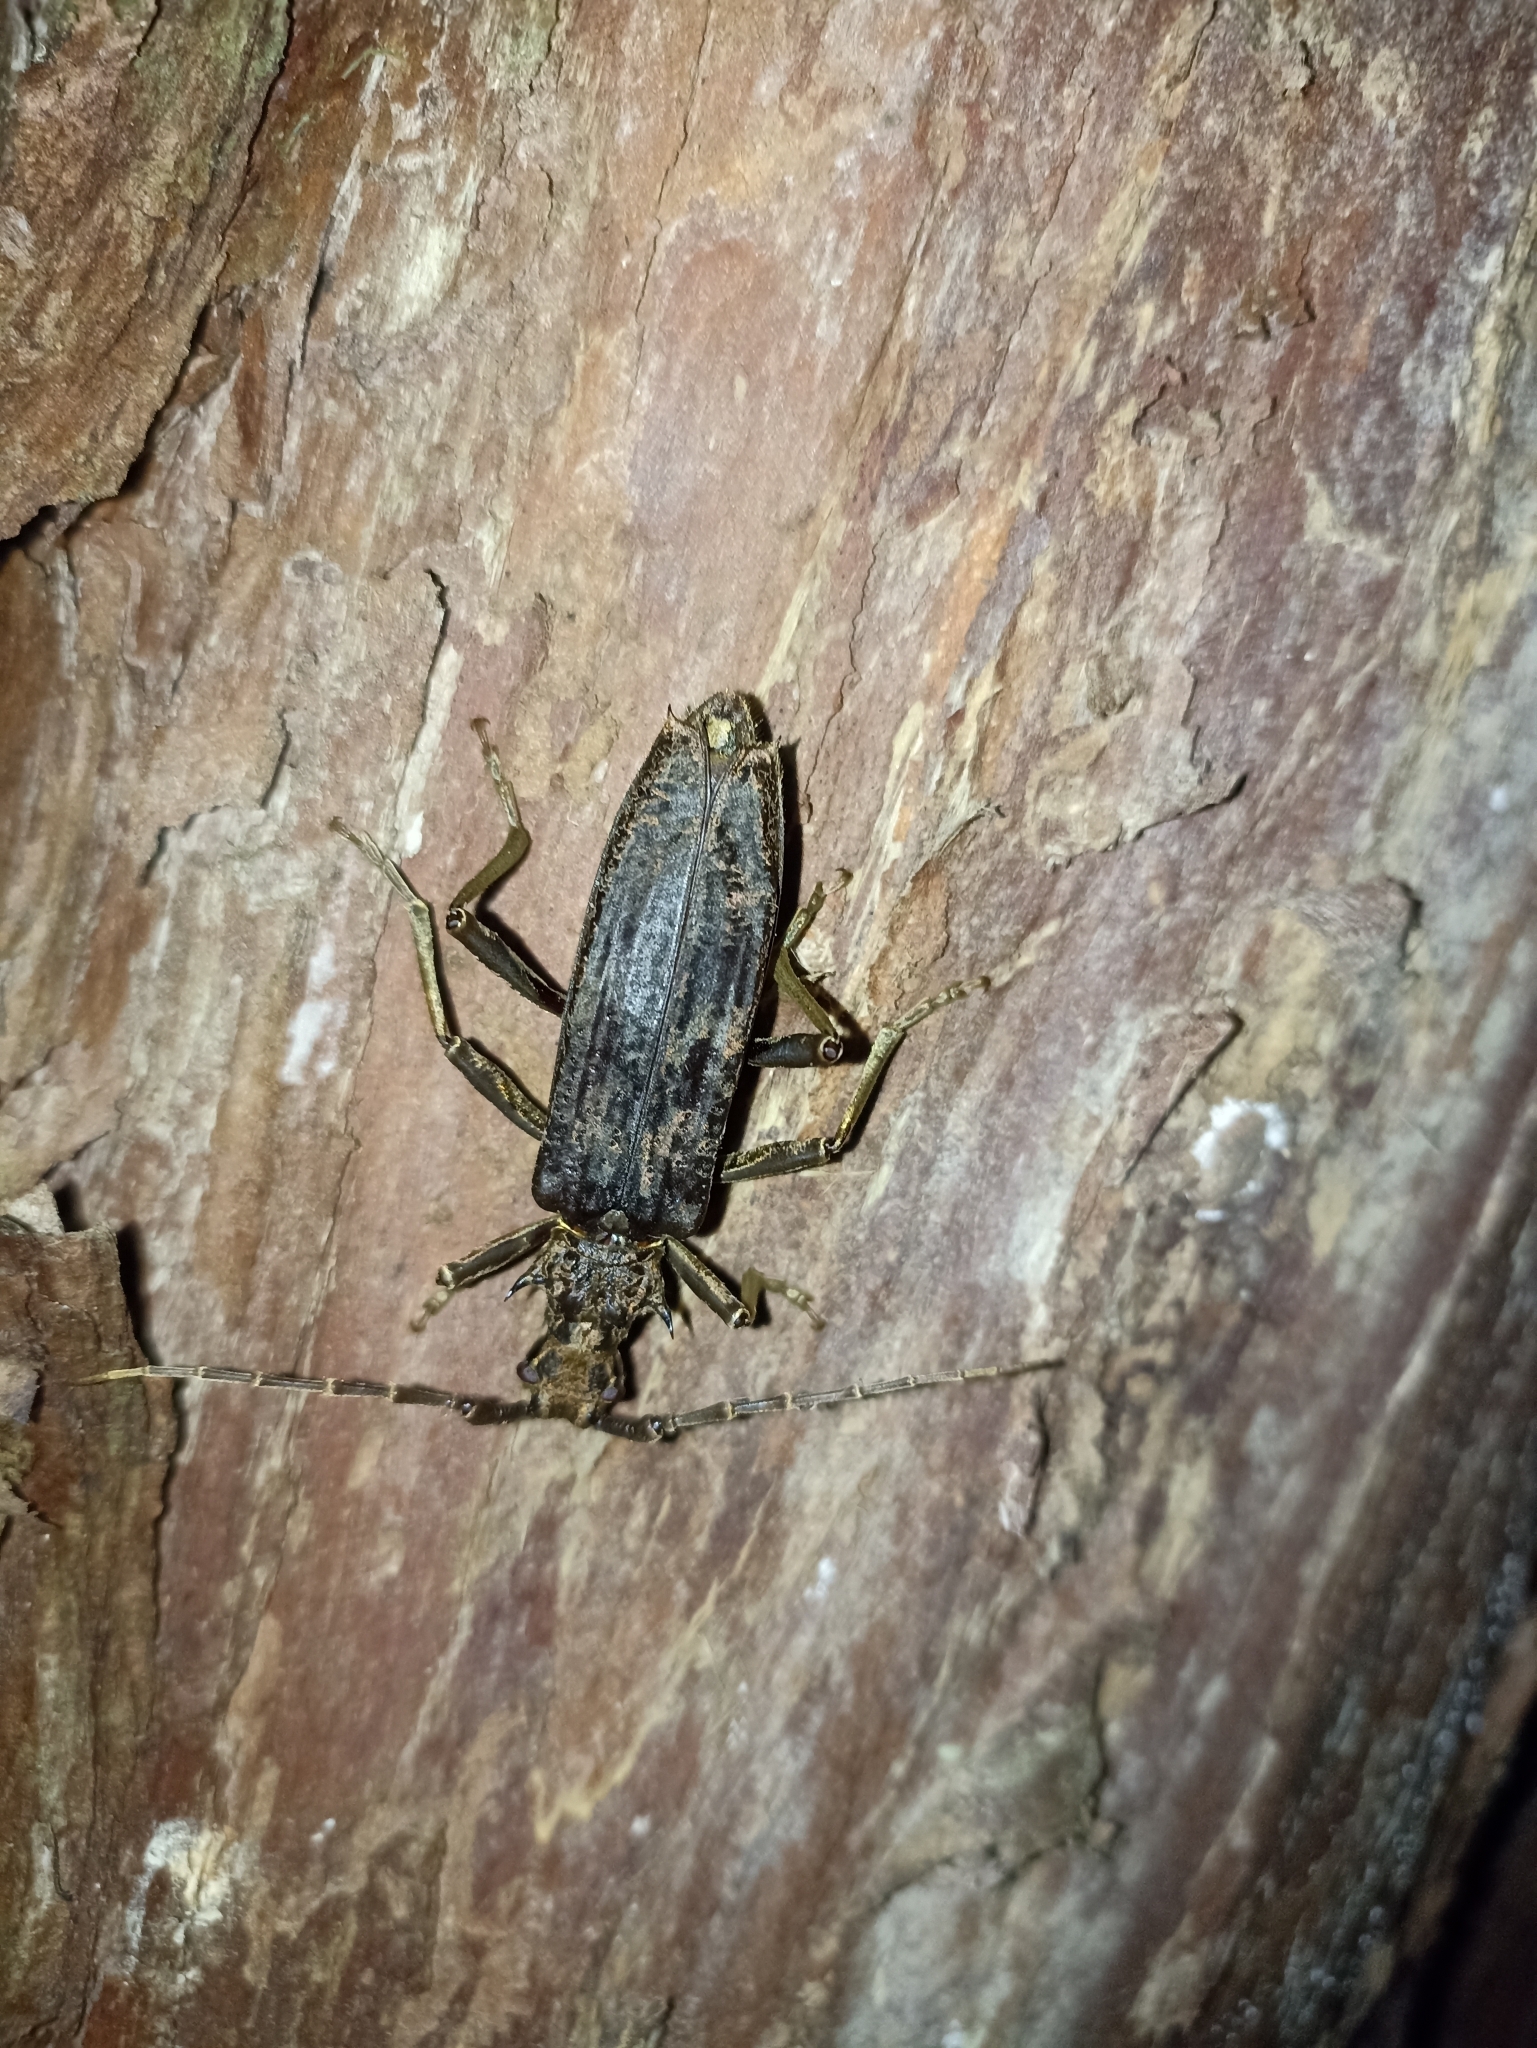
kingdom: Animalia
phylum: Arthropoda
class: Insecta
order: Coleoptera
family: Cerambycidae
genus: Blosyropus
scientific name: Blosyropus spinosus
